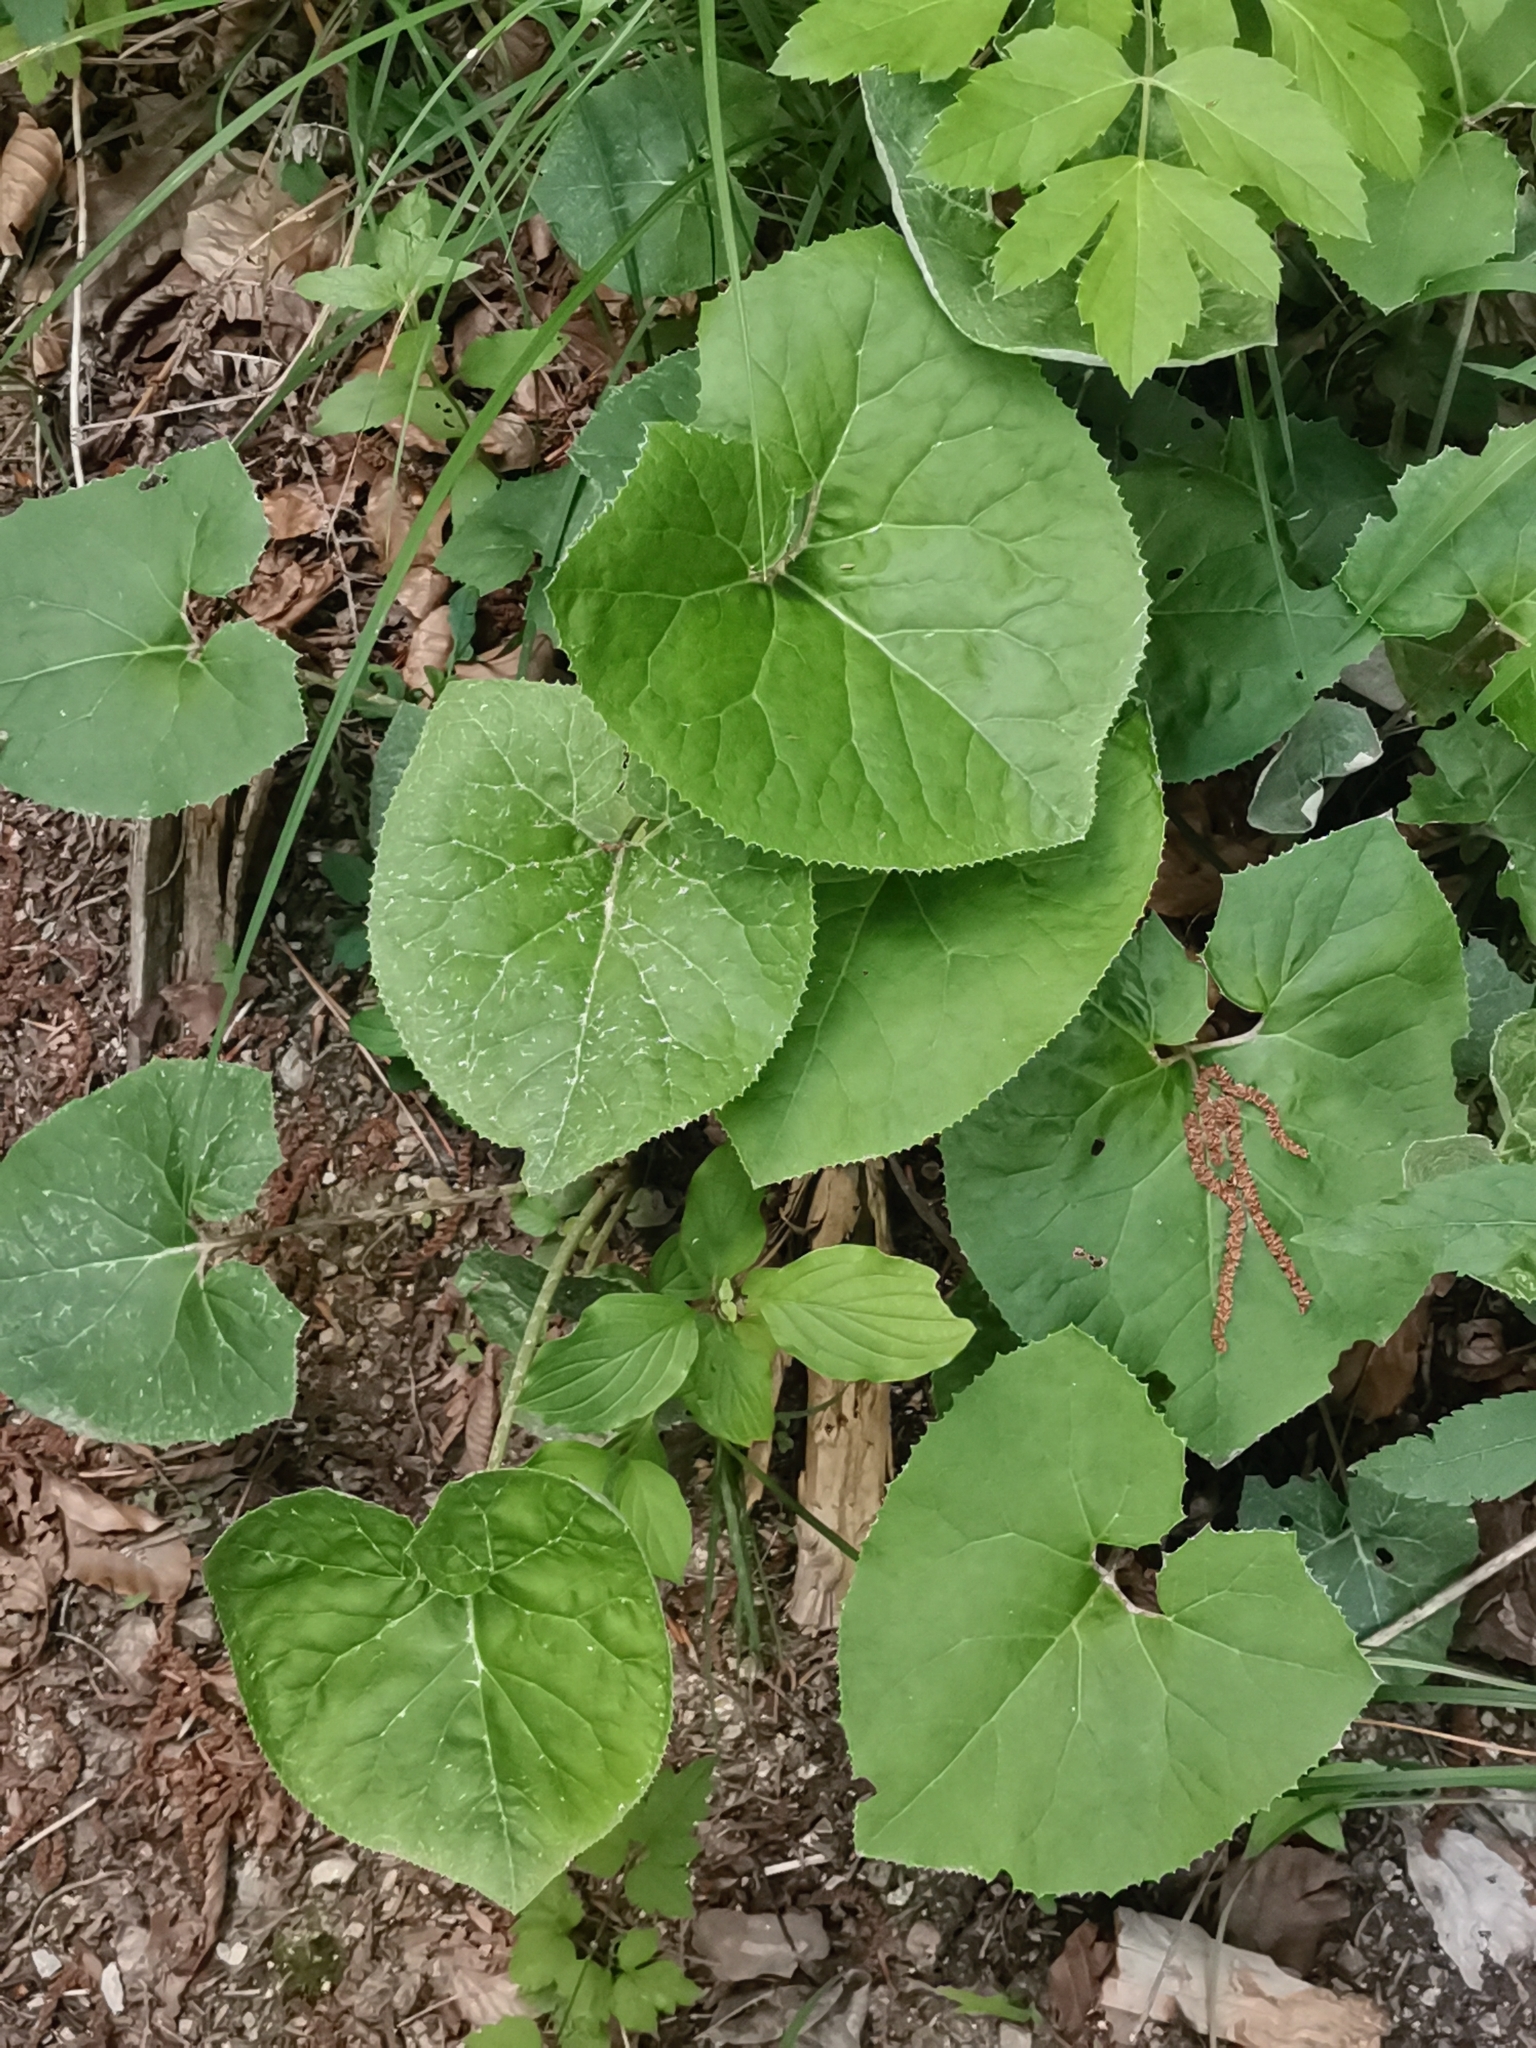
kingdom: Plantae
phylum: Tracheophyta
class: Magnoliopsida
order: Asterales
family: Asteraceae
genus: Petasites
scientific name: Petasites paradoxus
